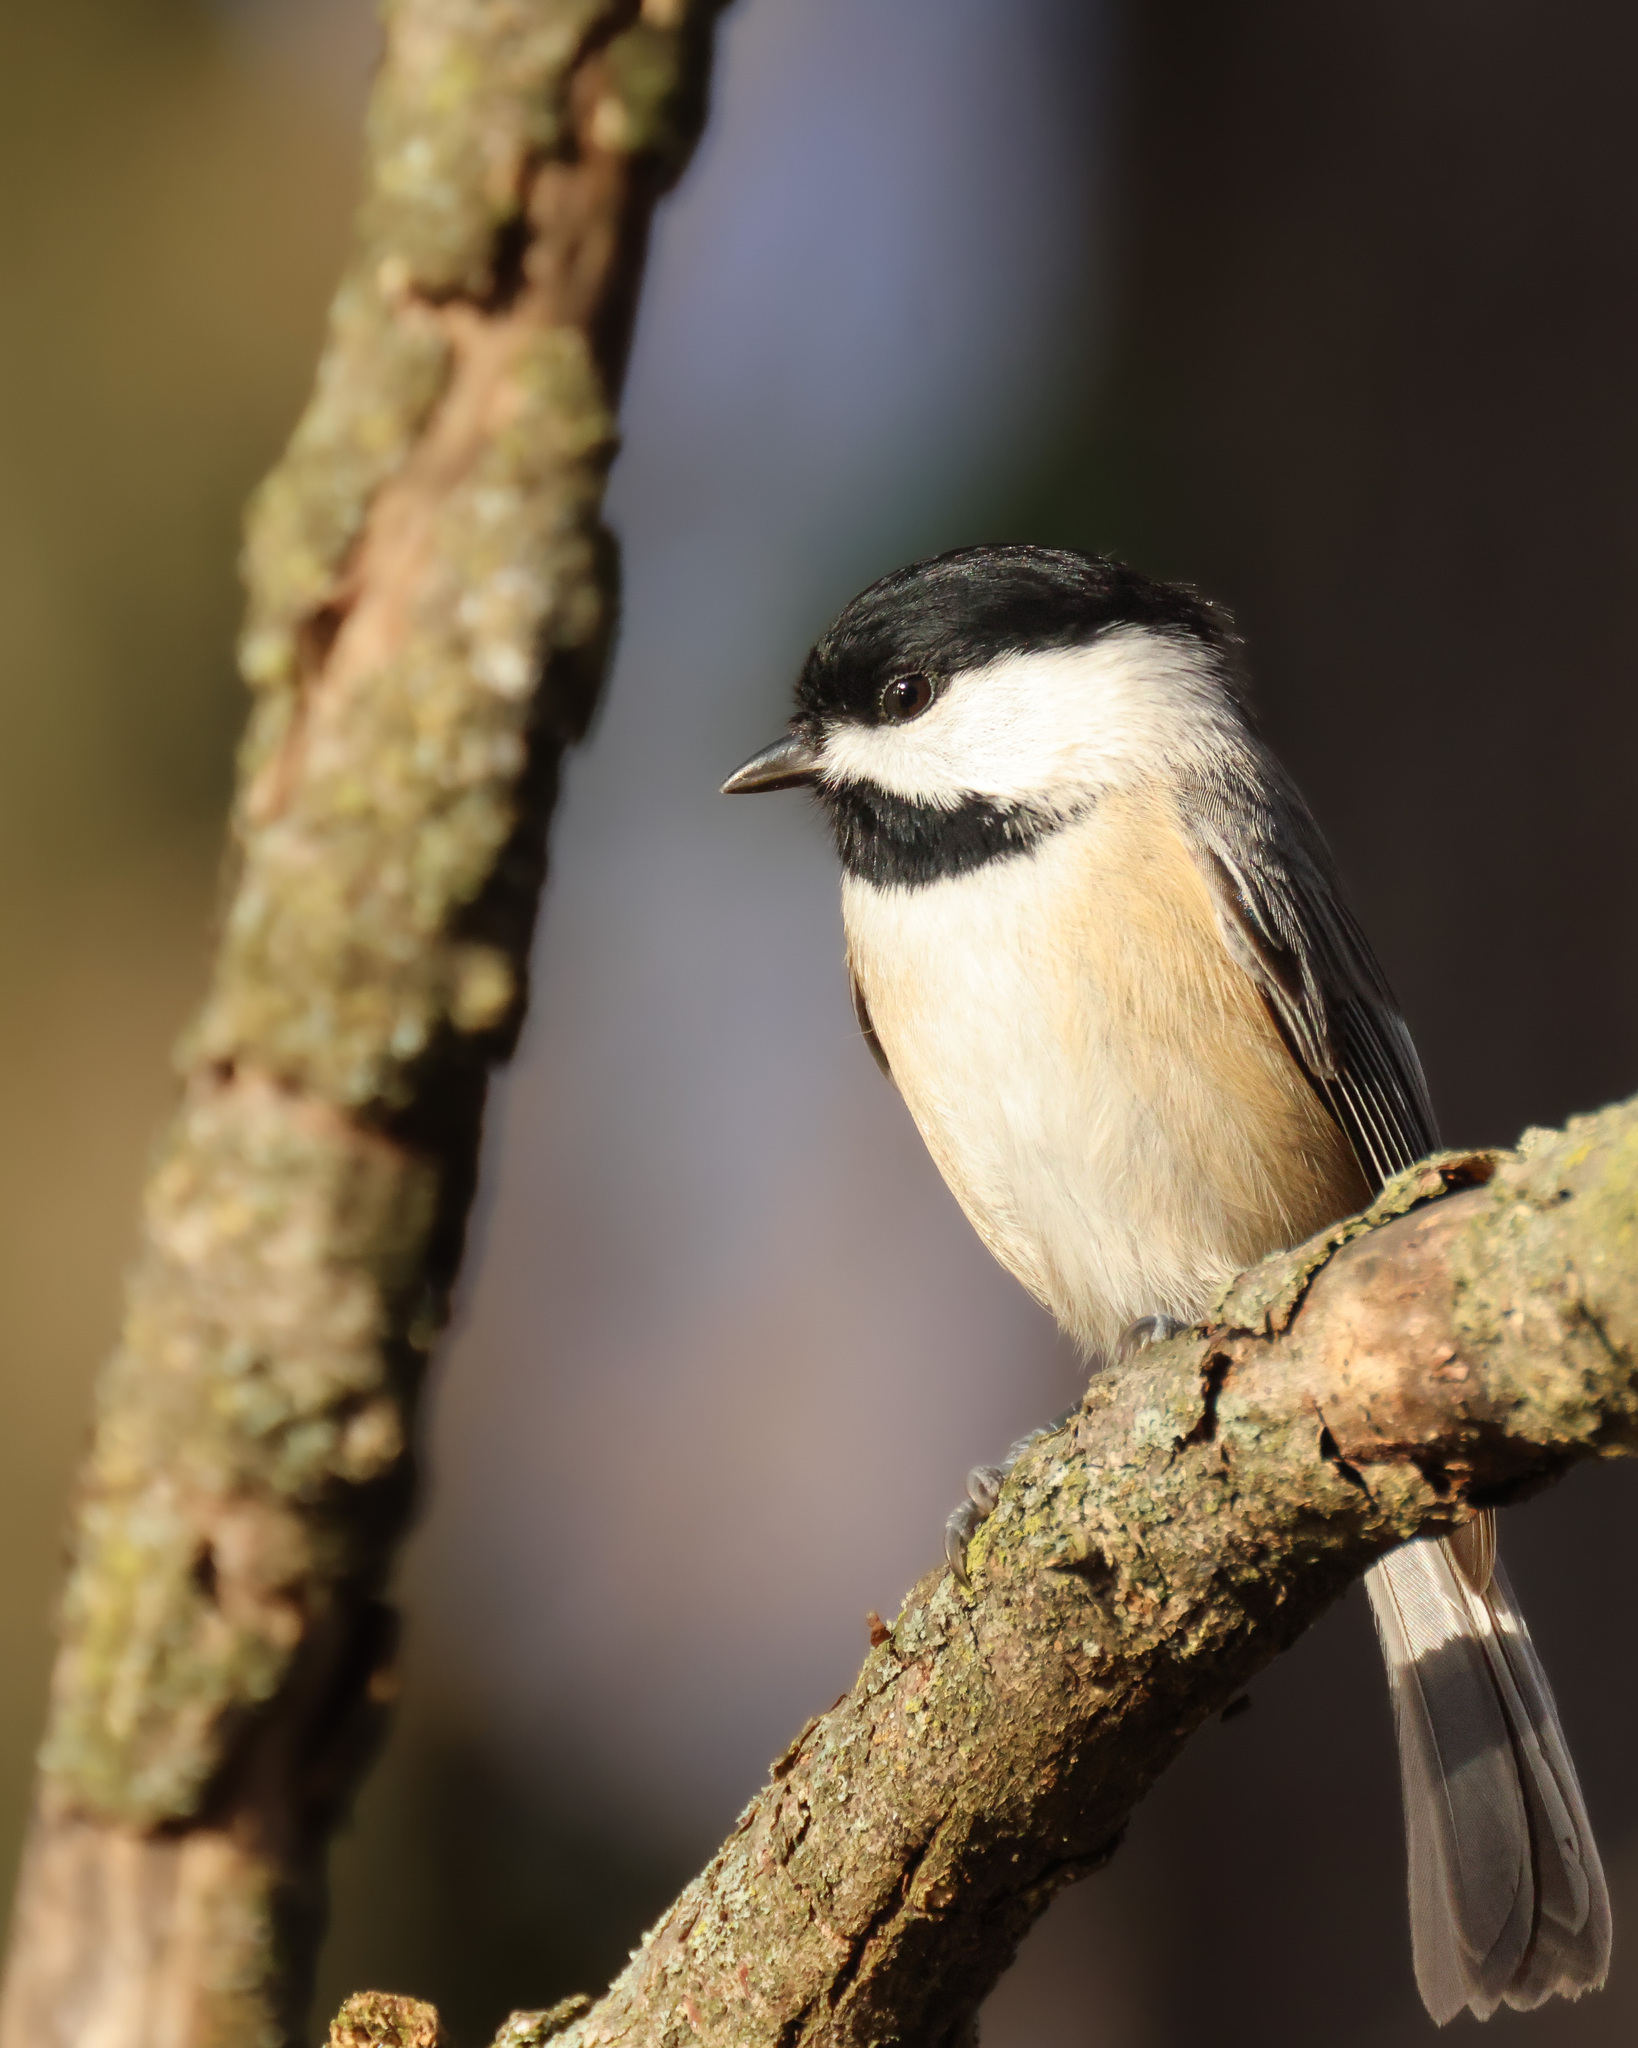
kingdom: Animalia
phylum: Chordata
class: Aves
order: Passeriformes
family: Paridae
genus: Poecile
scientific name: Poecile carolinensis
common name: Carolina chickadee
